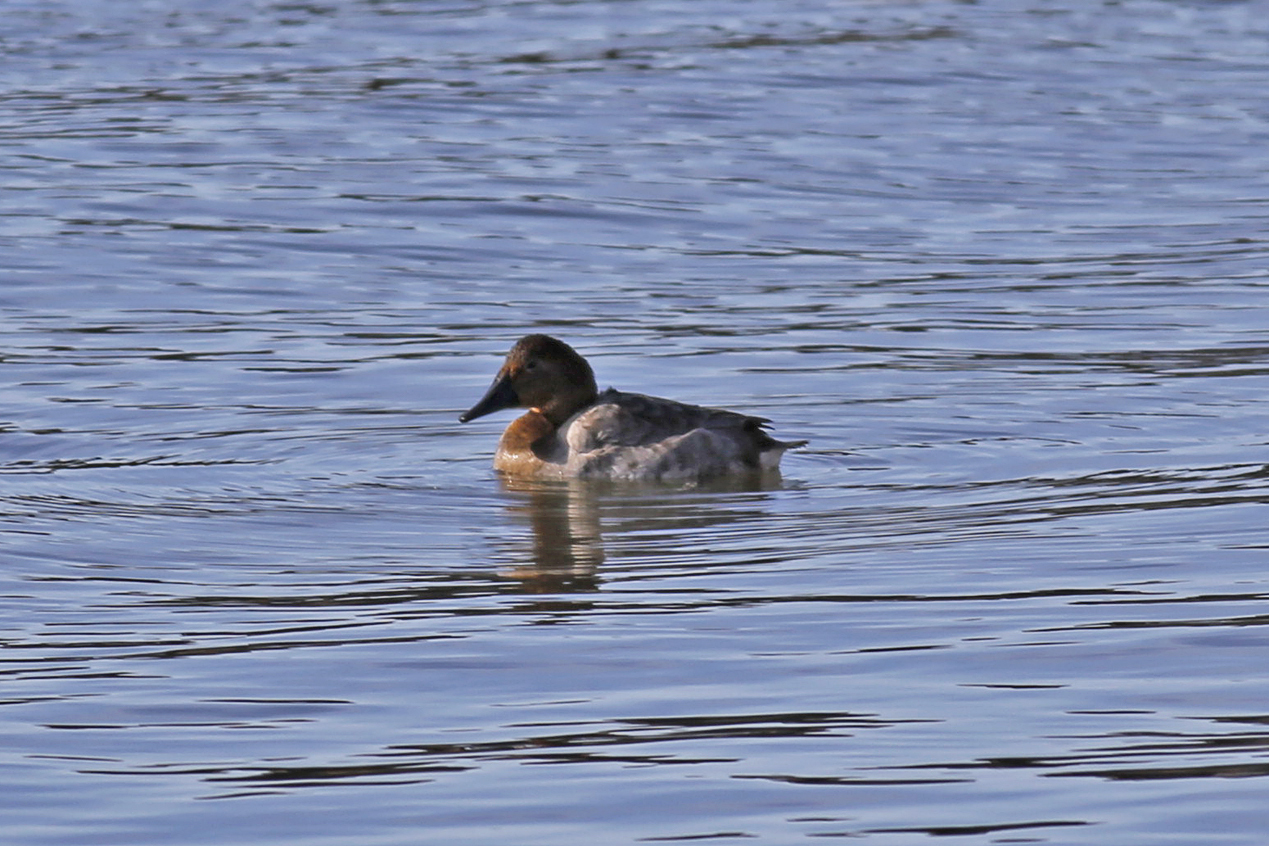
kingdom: Animalia
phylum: Chordata
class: Aves
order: Anseriformes
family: Anatidae
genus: Aythya
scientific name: Aythya valisineria
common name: Canvasback
